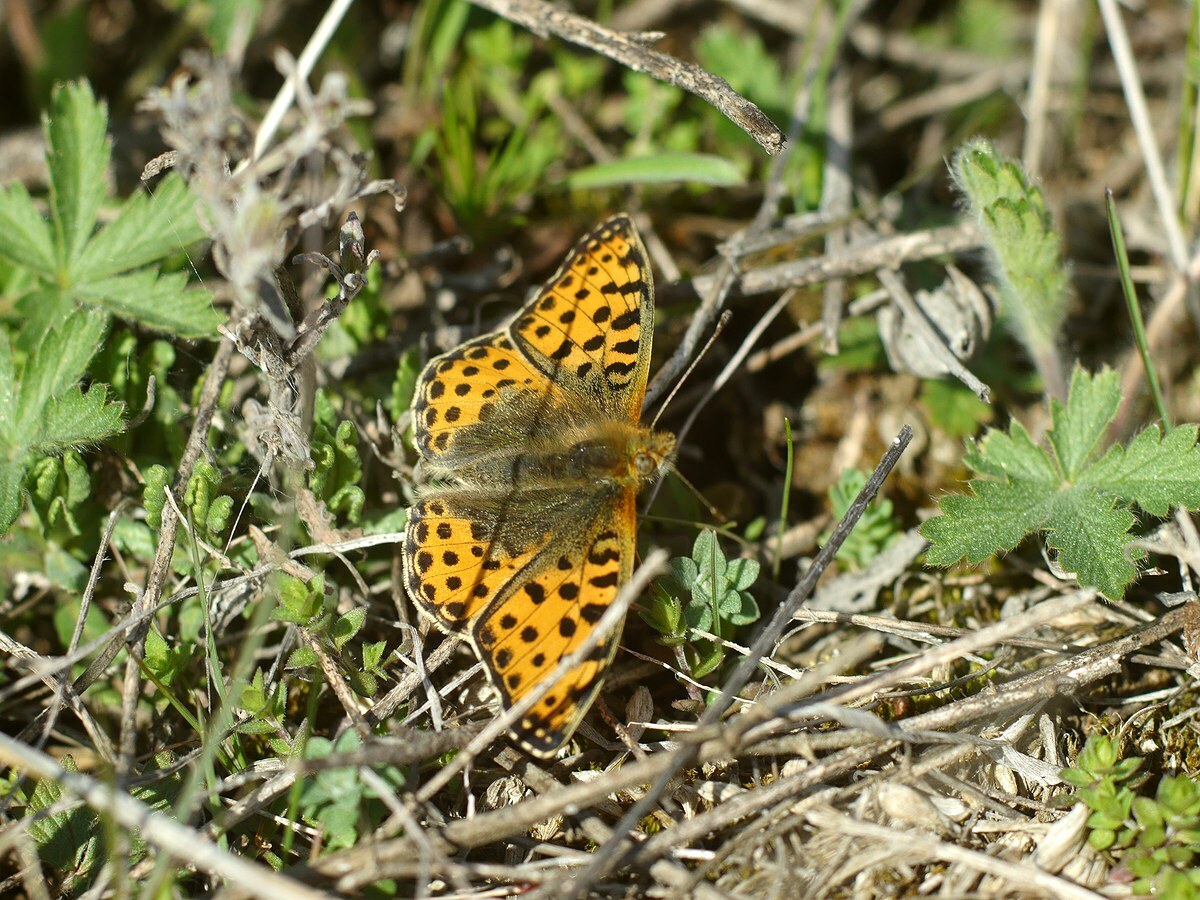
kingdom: Animalia
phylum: Arthropoda
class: Insecta
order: Lepidoptera
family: Nymphalidae
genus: Issoria
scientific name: Issoria lathonia
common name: Queen of spain fritillary
